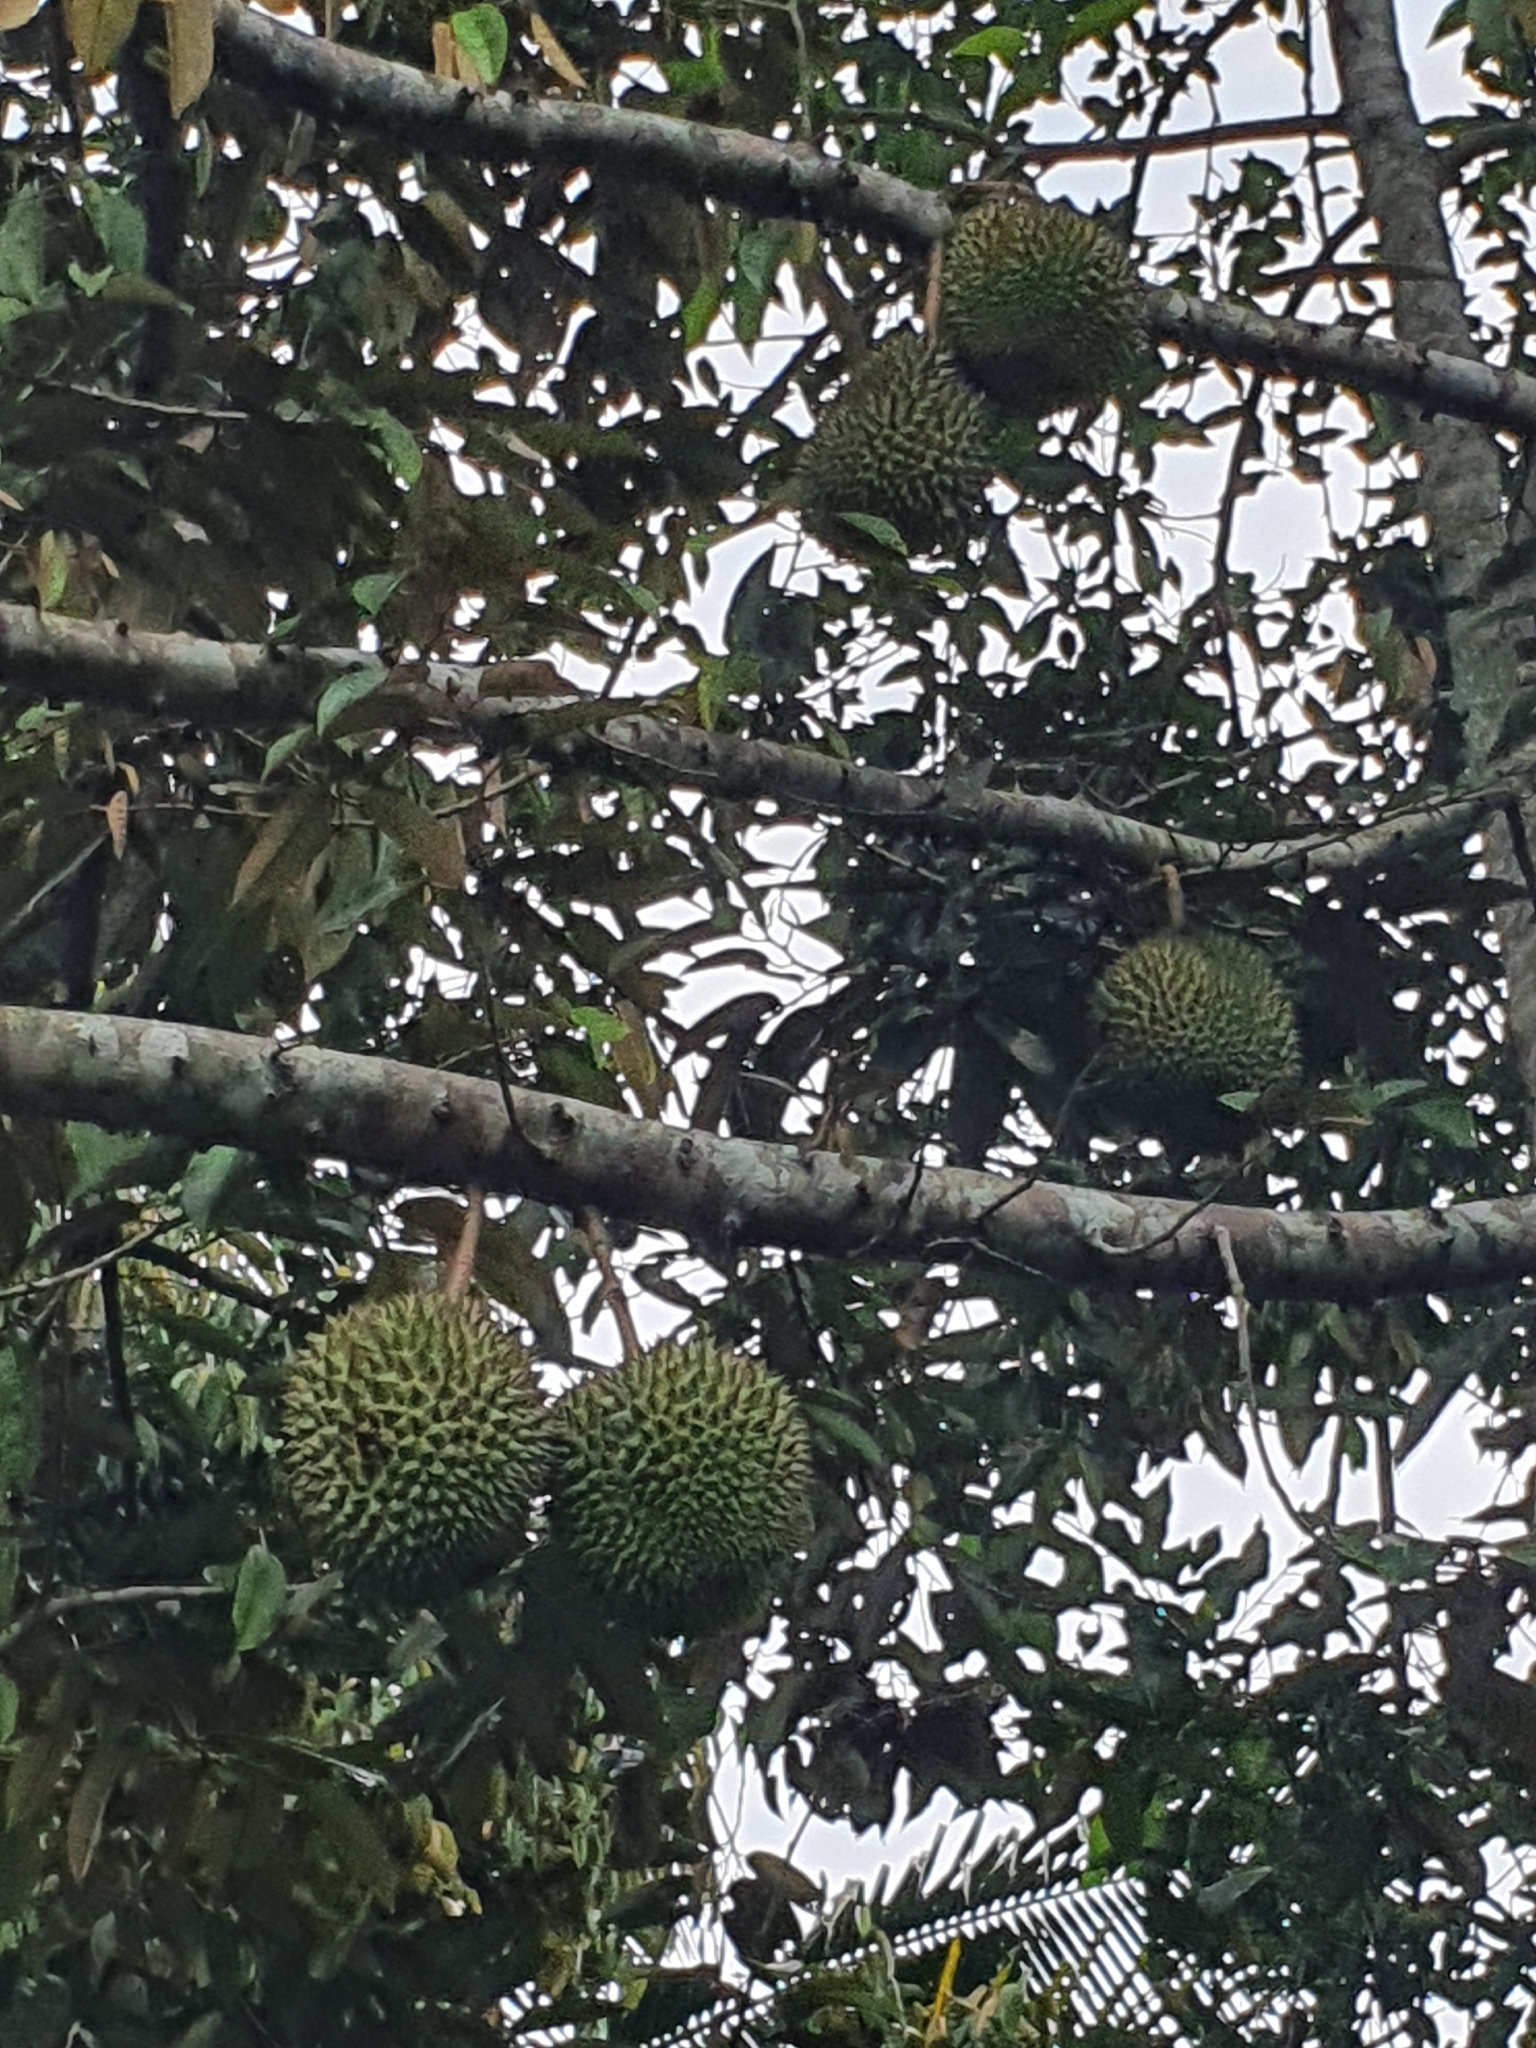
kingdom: Plantae
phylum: Tracheophyta
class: Magnoliopsida
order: Malvales
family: Malvaceae
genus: Durio
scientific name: Durio zibethinus
